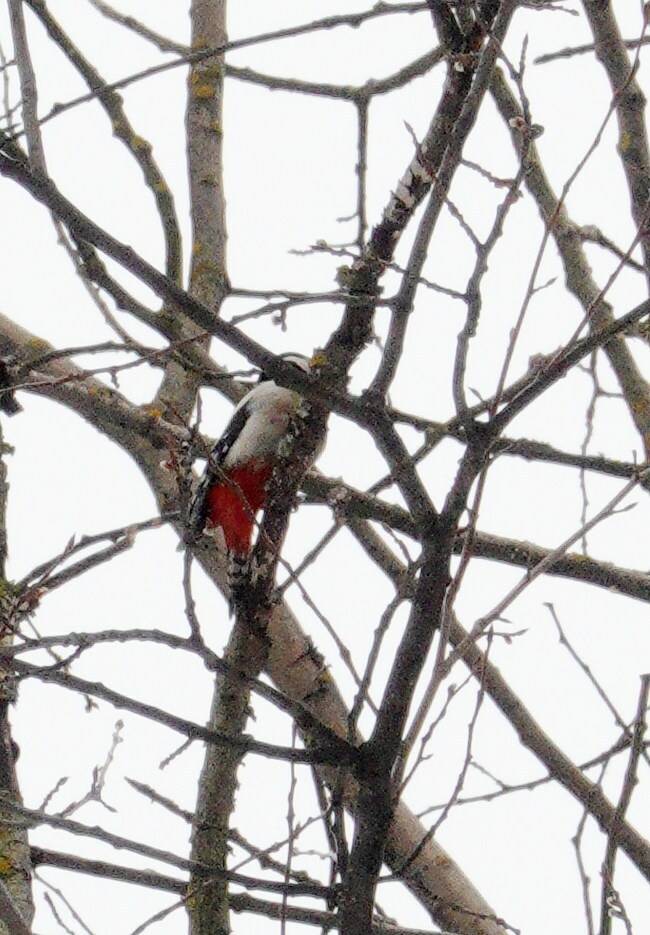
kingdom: Animalia
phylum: Chordata
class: Aves
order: Piciformes
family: Picidae
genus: Dendrocopos
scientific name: Dendrocopos major
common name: Great spotted woodpecker
